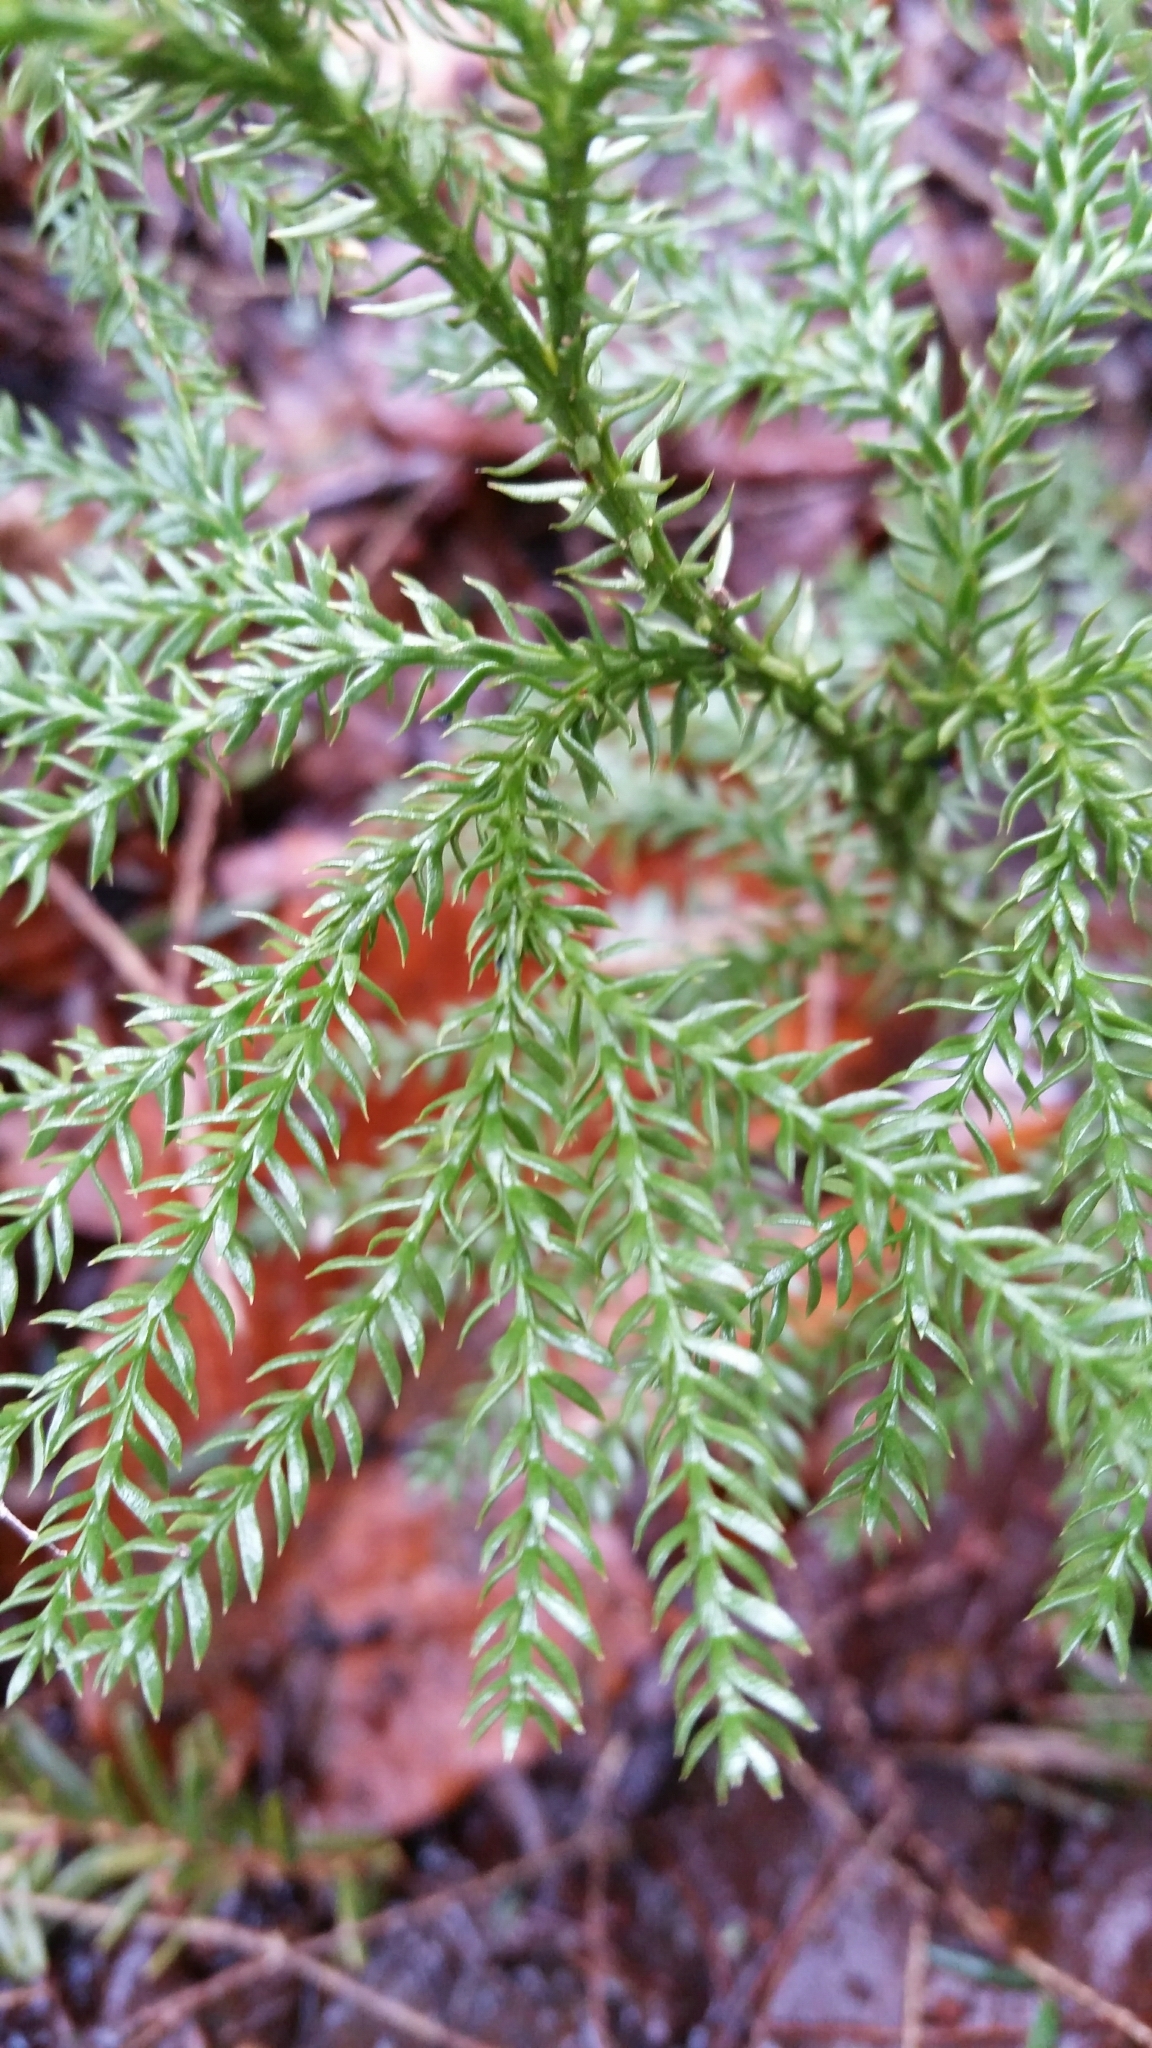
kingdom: Plantae
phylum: Tracheophyta
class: Lycopodiopsida
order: Lycopodiales
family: Lycopodiaceae
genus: Dendrolycopodium
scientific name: Dendrolycopodium dendroideum
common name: Northern tree-clubmoss
